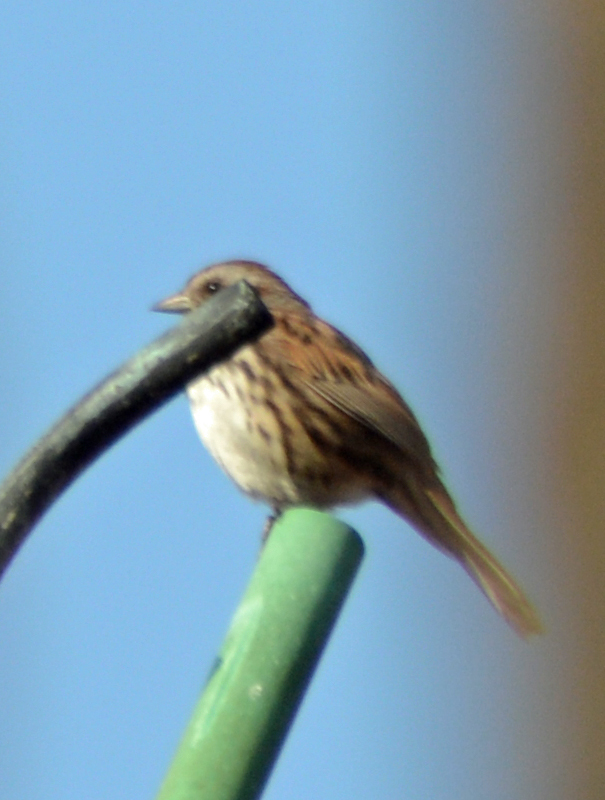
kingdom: Animalia
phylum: Chordata
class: Aves
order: Passeriformes
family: Passerellidae
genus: Melospiza
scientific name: Melospiza melodia
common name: Song sparrow
